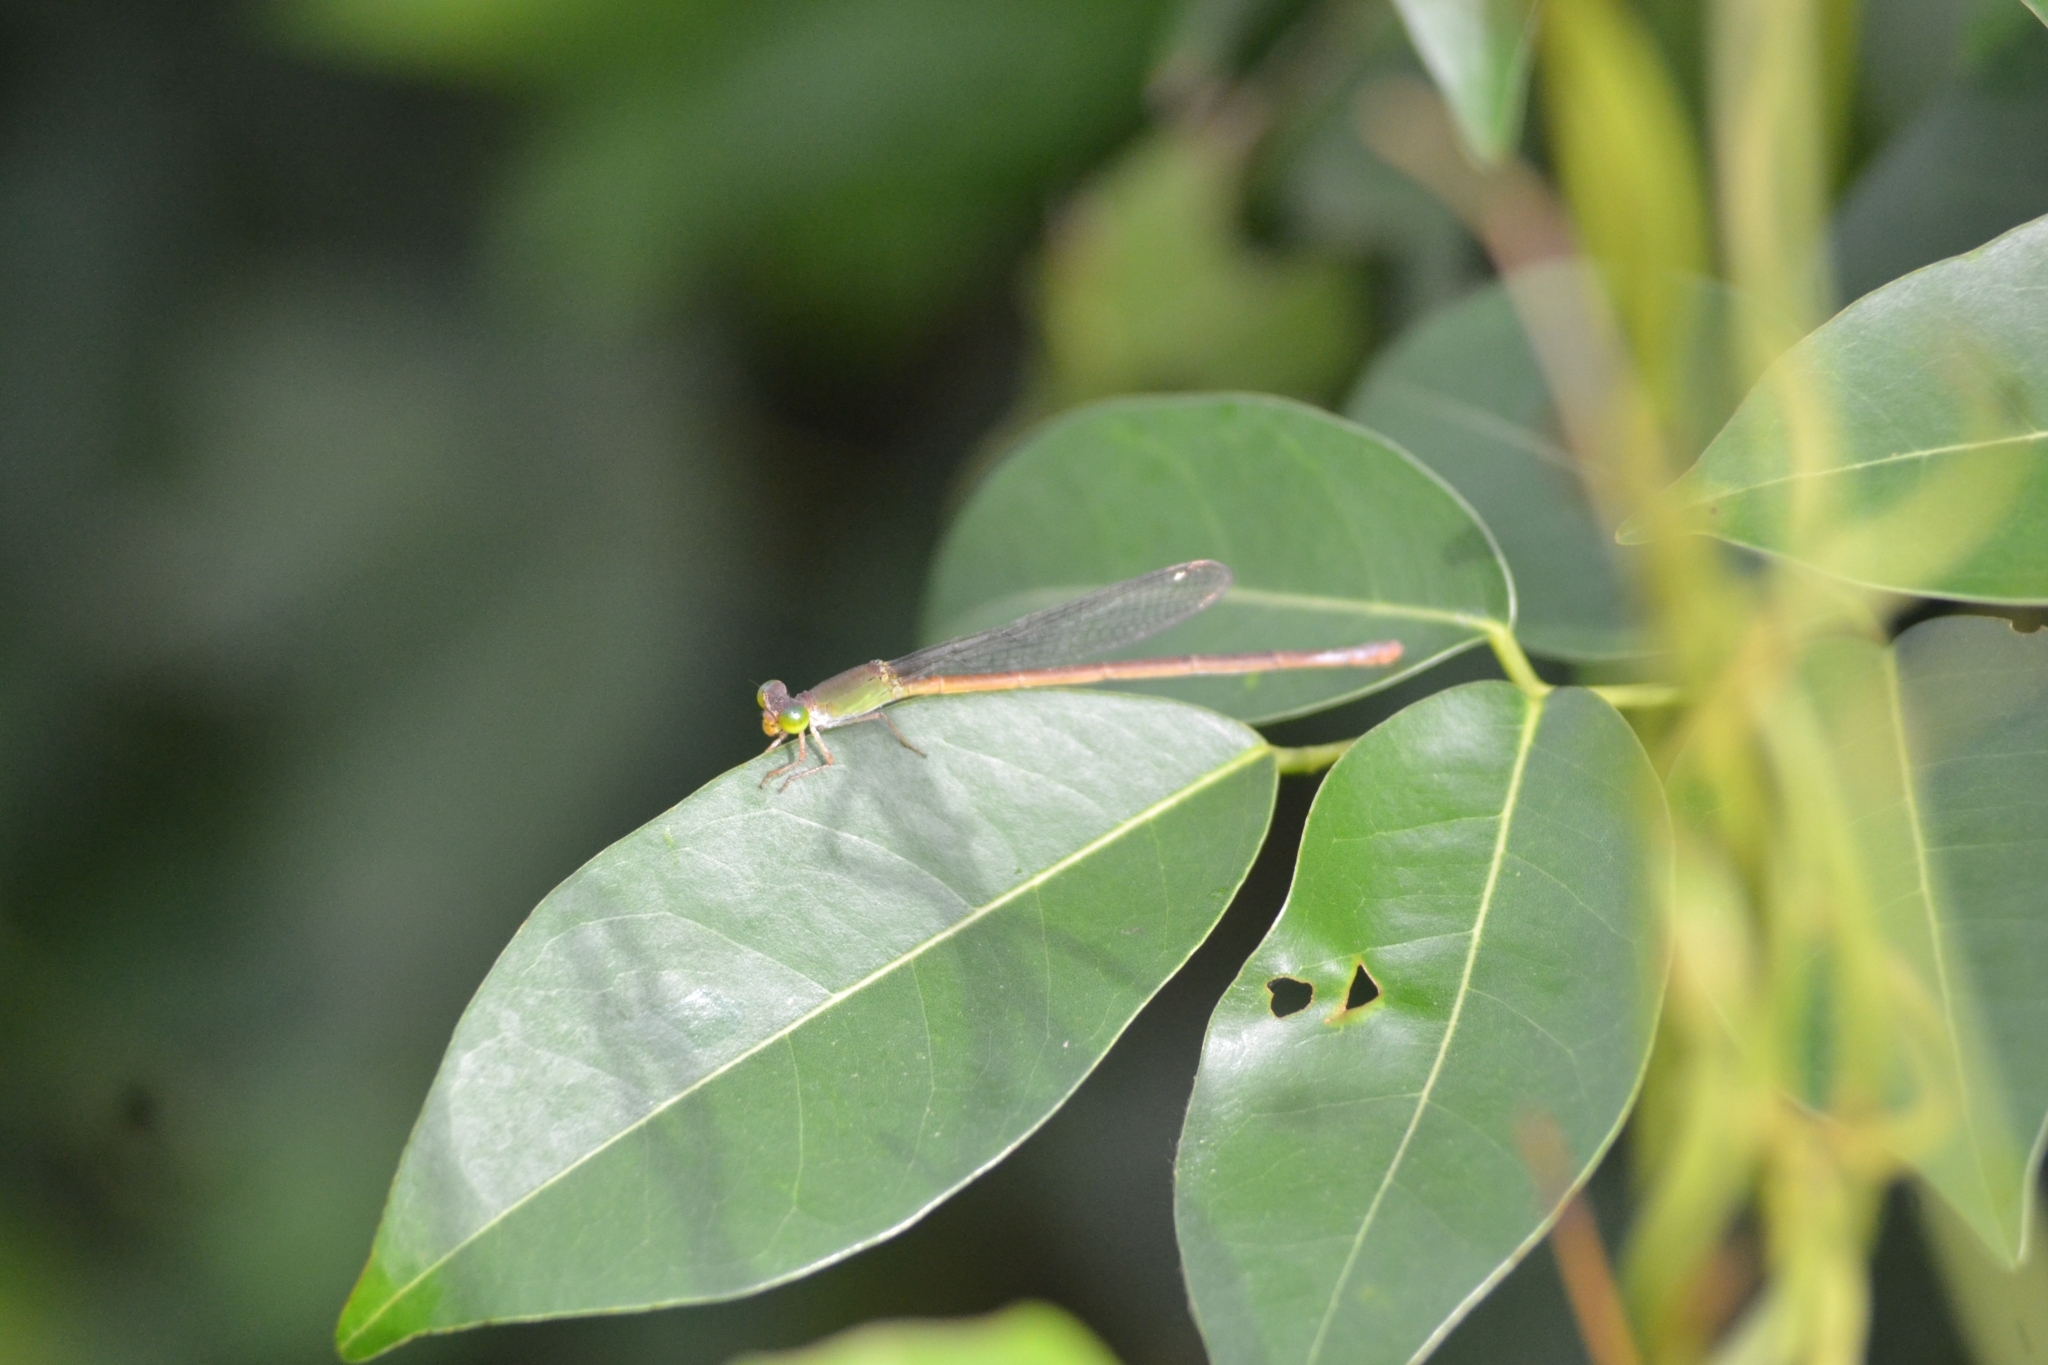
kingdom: Animalia
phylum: Arthropoda
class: Insecta
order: Odonata
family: Coenagrionidae
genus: Ceriagrion
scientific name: Ceriagrion coromandelianum
